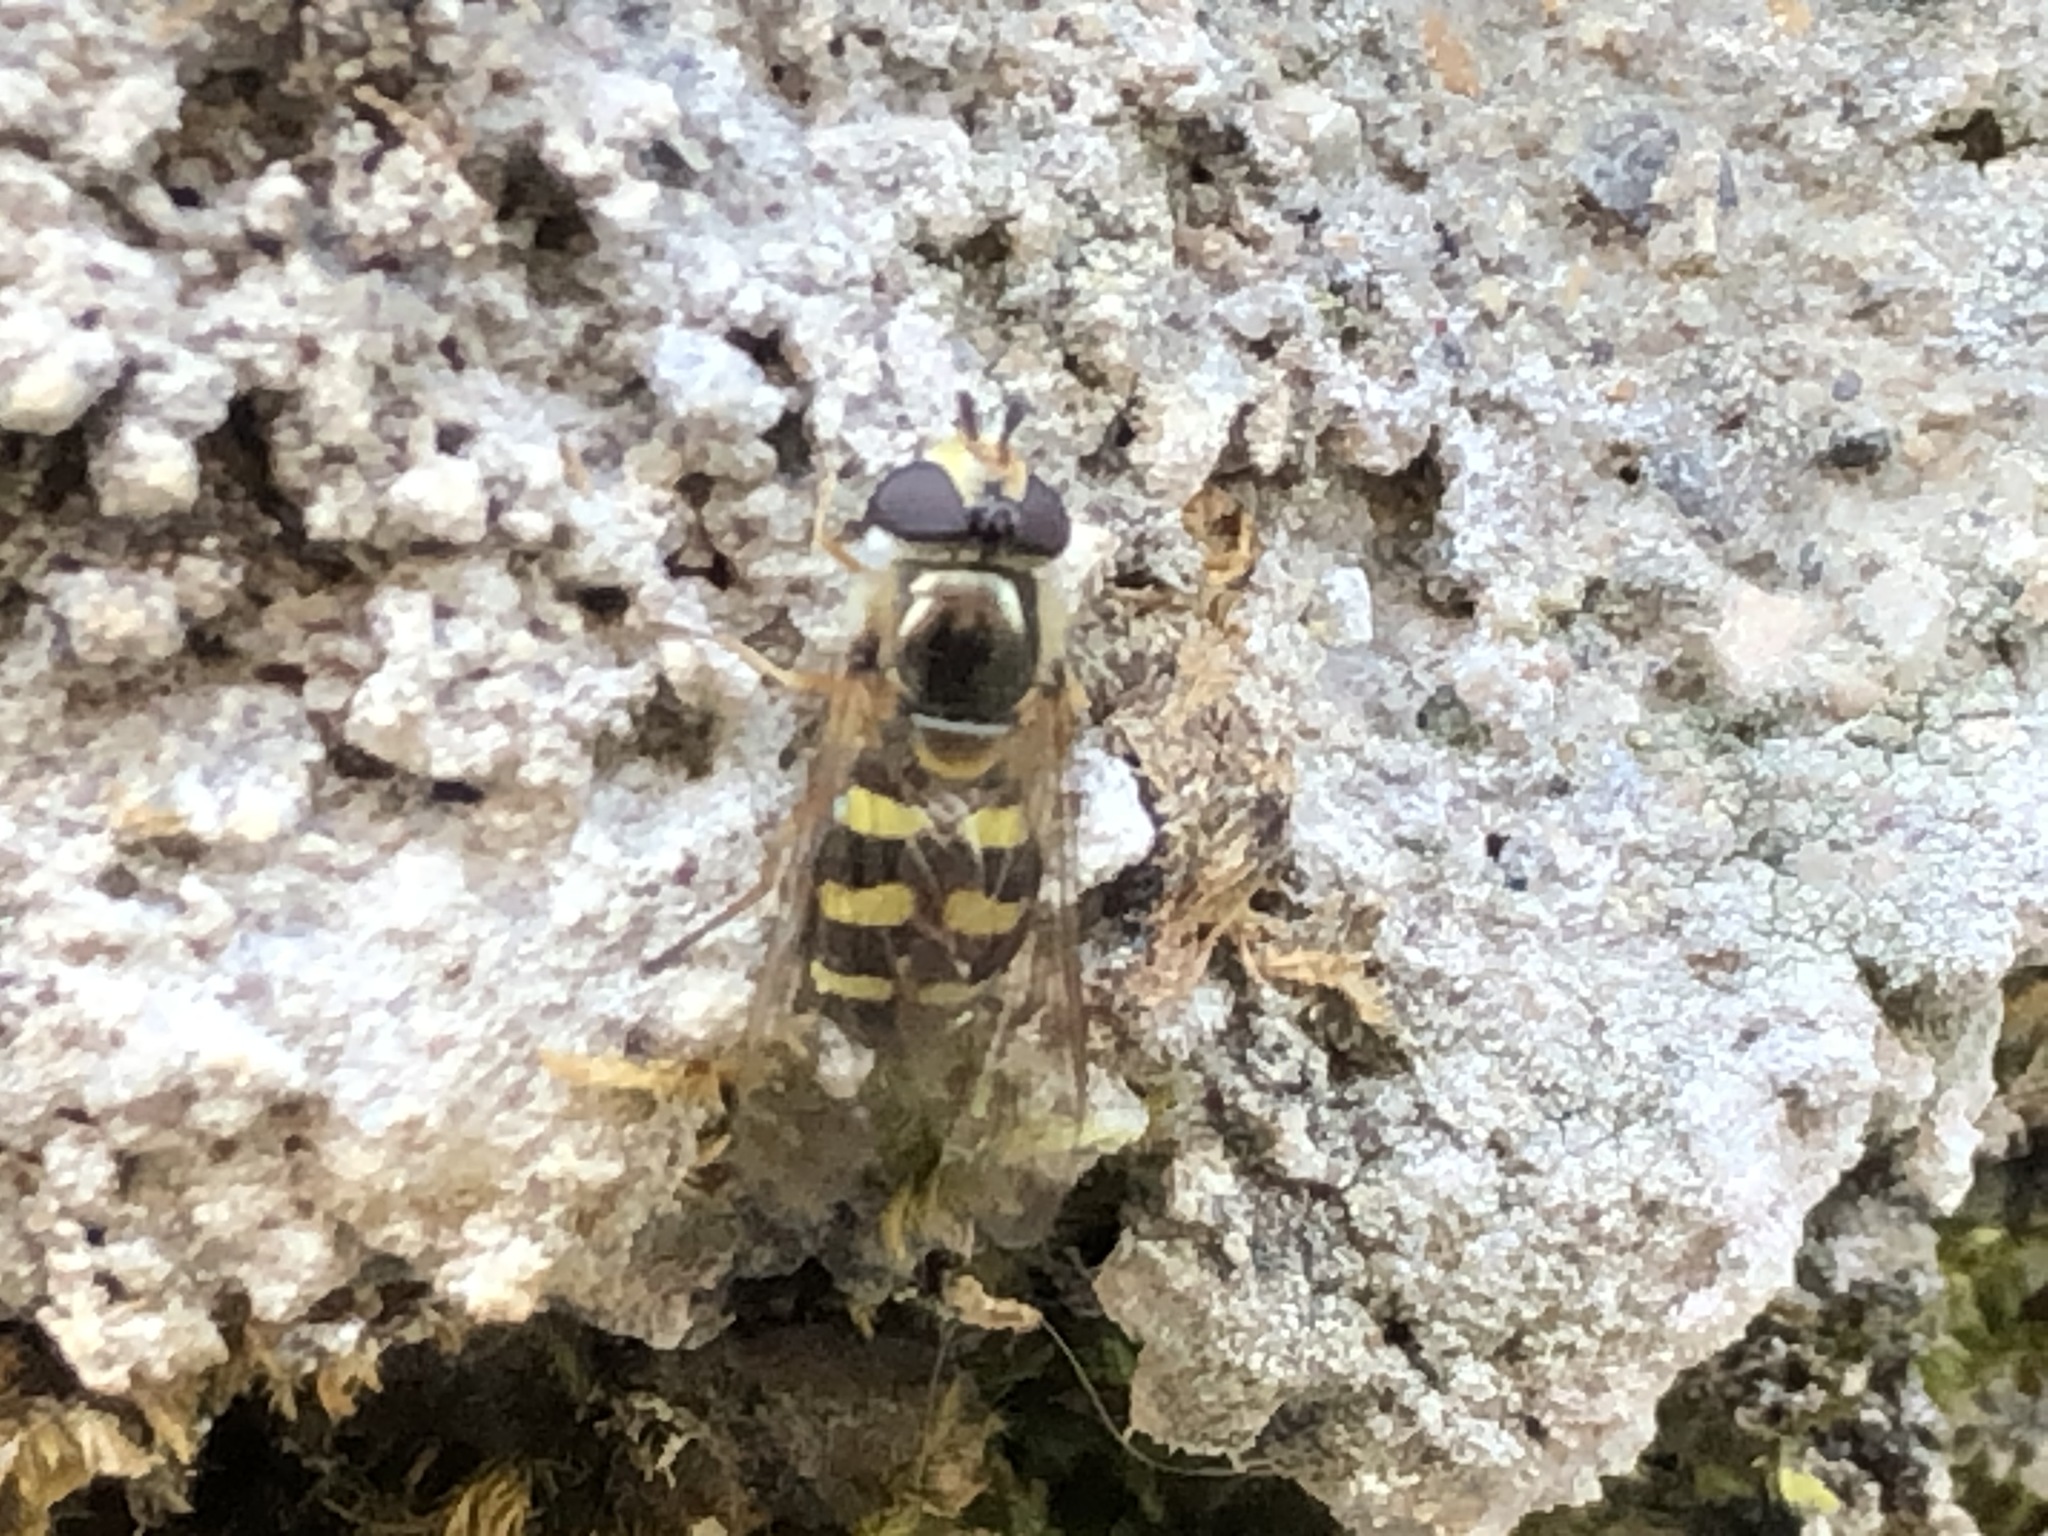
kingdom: Animalia
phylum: Arthropoda
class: Insecta
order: Diptera
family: Syrphidae
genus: Eupeodes
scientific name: Eupeodes luniger
